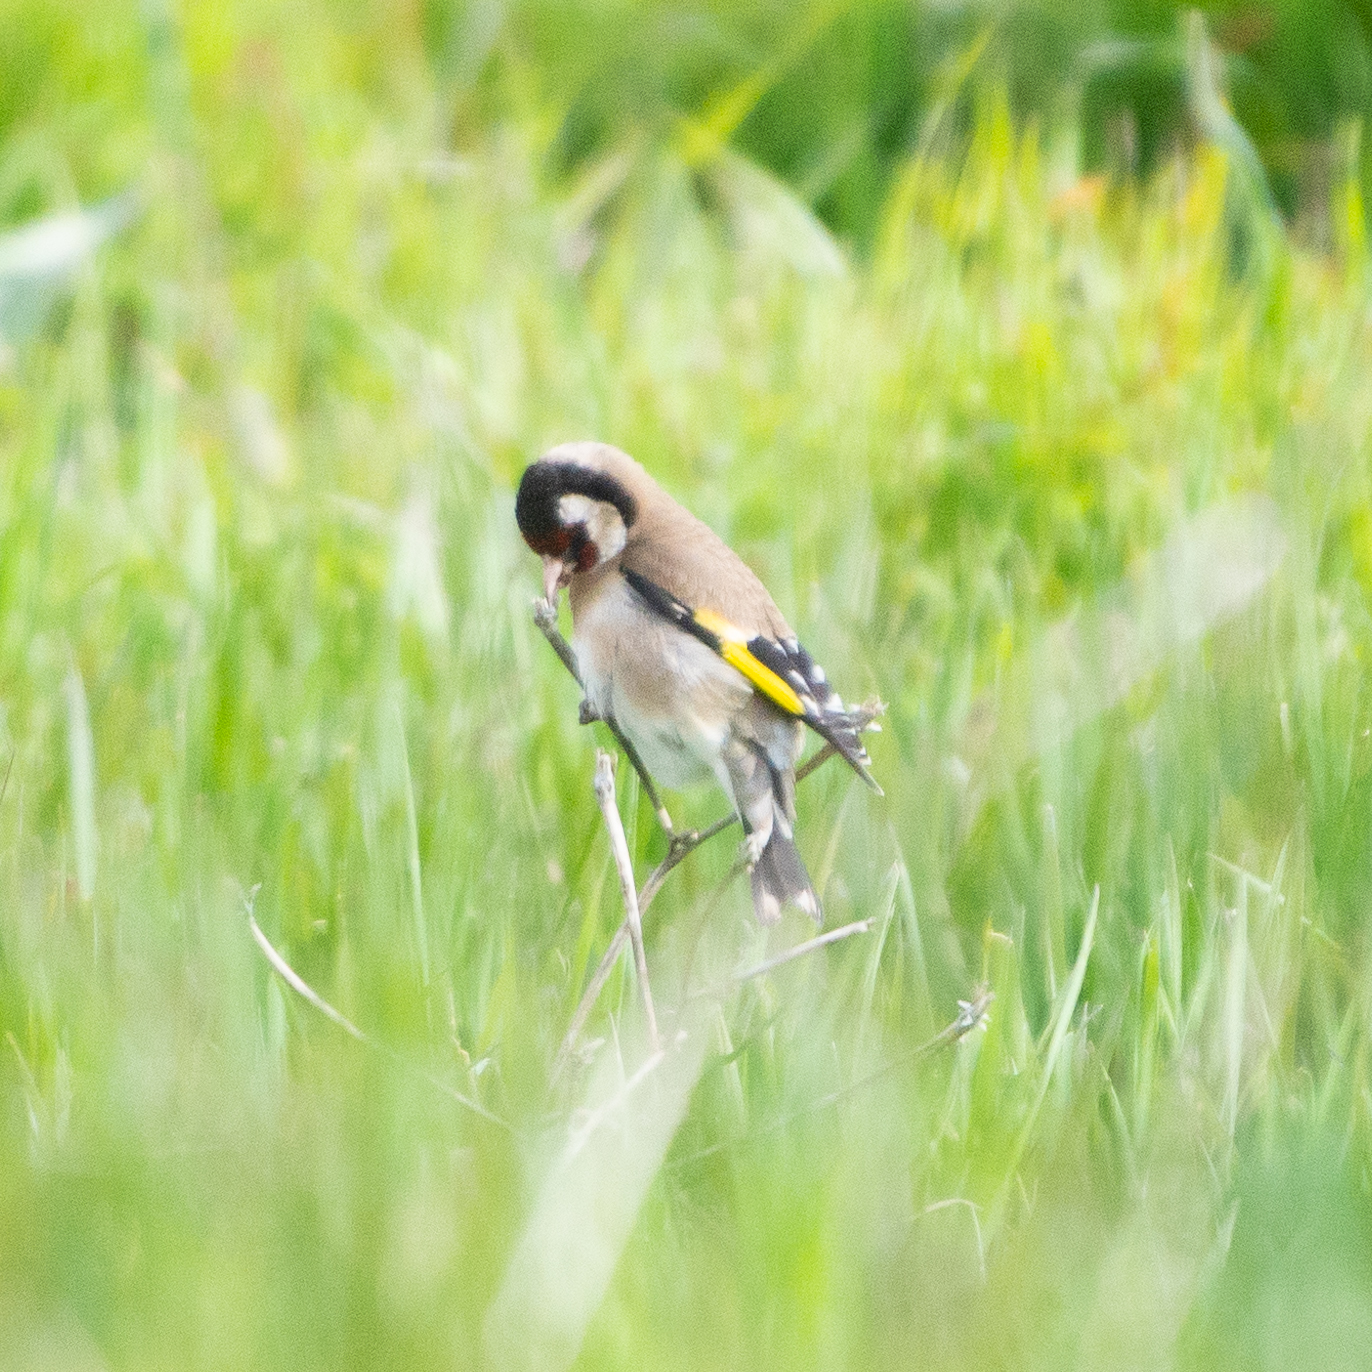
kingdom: Animalia
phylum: Chordata
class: Aves
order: Passeriformes
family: Fringillidae
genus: Carduelis
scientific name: Carduelis carduelis
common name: European goldfinch
